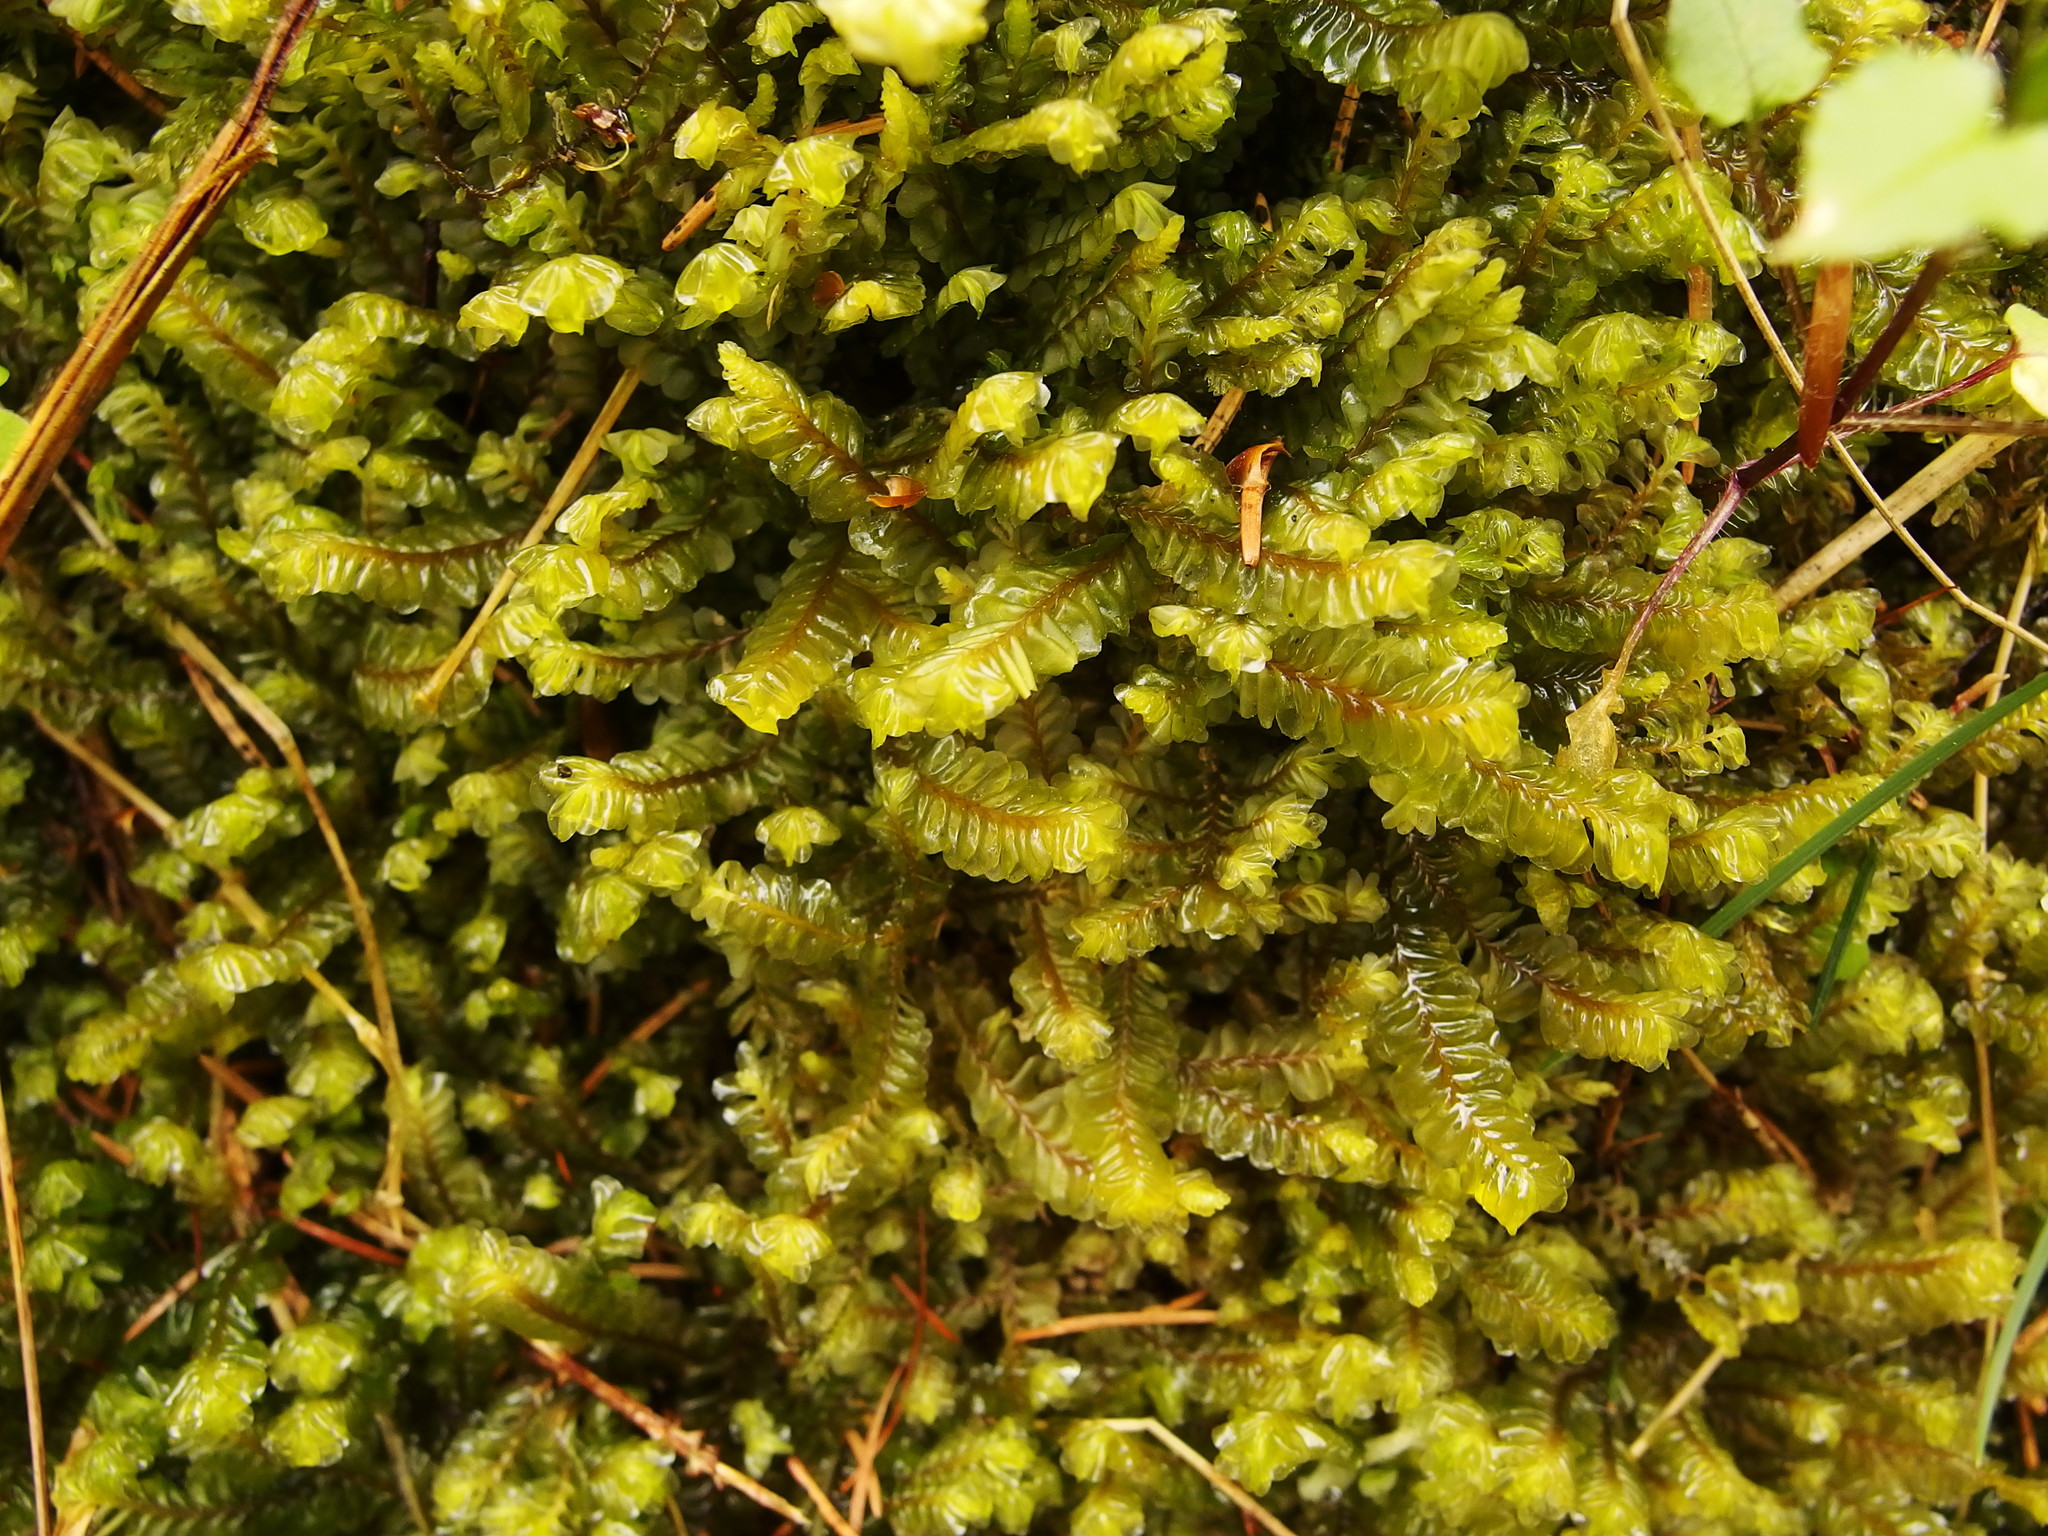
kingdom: Plantae
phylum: Marchantiophyta
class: Jungermanniopsida
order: Jungermanniales
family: Plagiochilaceae
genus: Plagiochila
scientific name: Plagiochila asplenioides
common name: Greater featherwort
